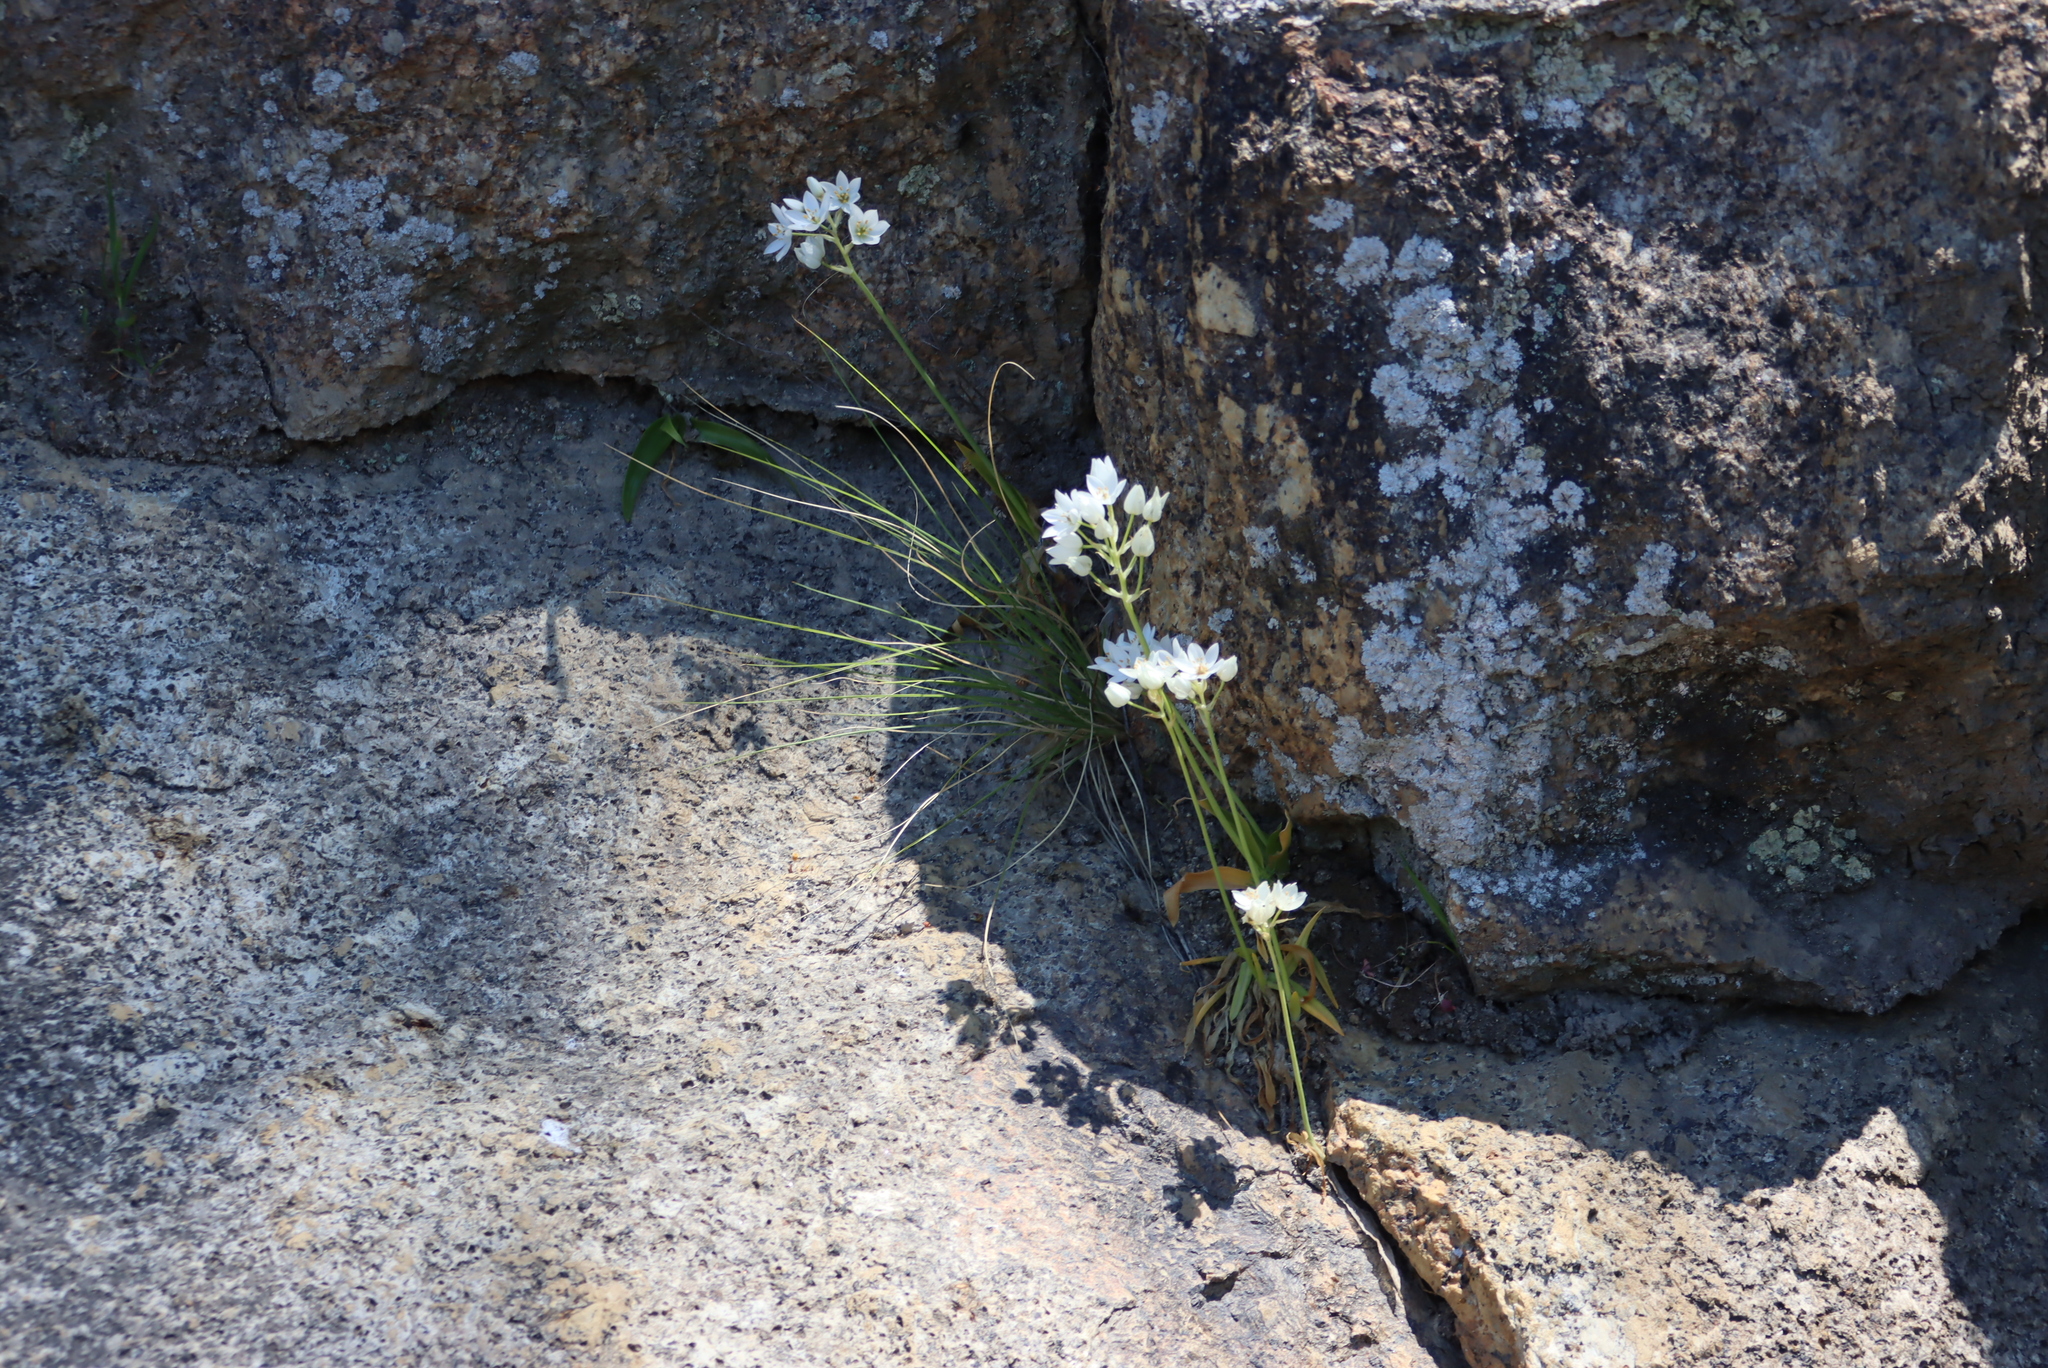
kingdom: Plantae
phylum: Tracheophyta
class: Liliopsida
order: Asparagales
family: Asparagaceae
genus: Ornithogalum
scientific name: Ornithogalum thyrsoides
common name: Chincherinchee
